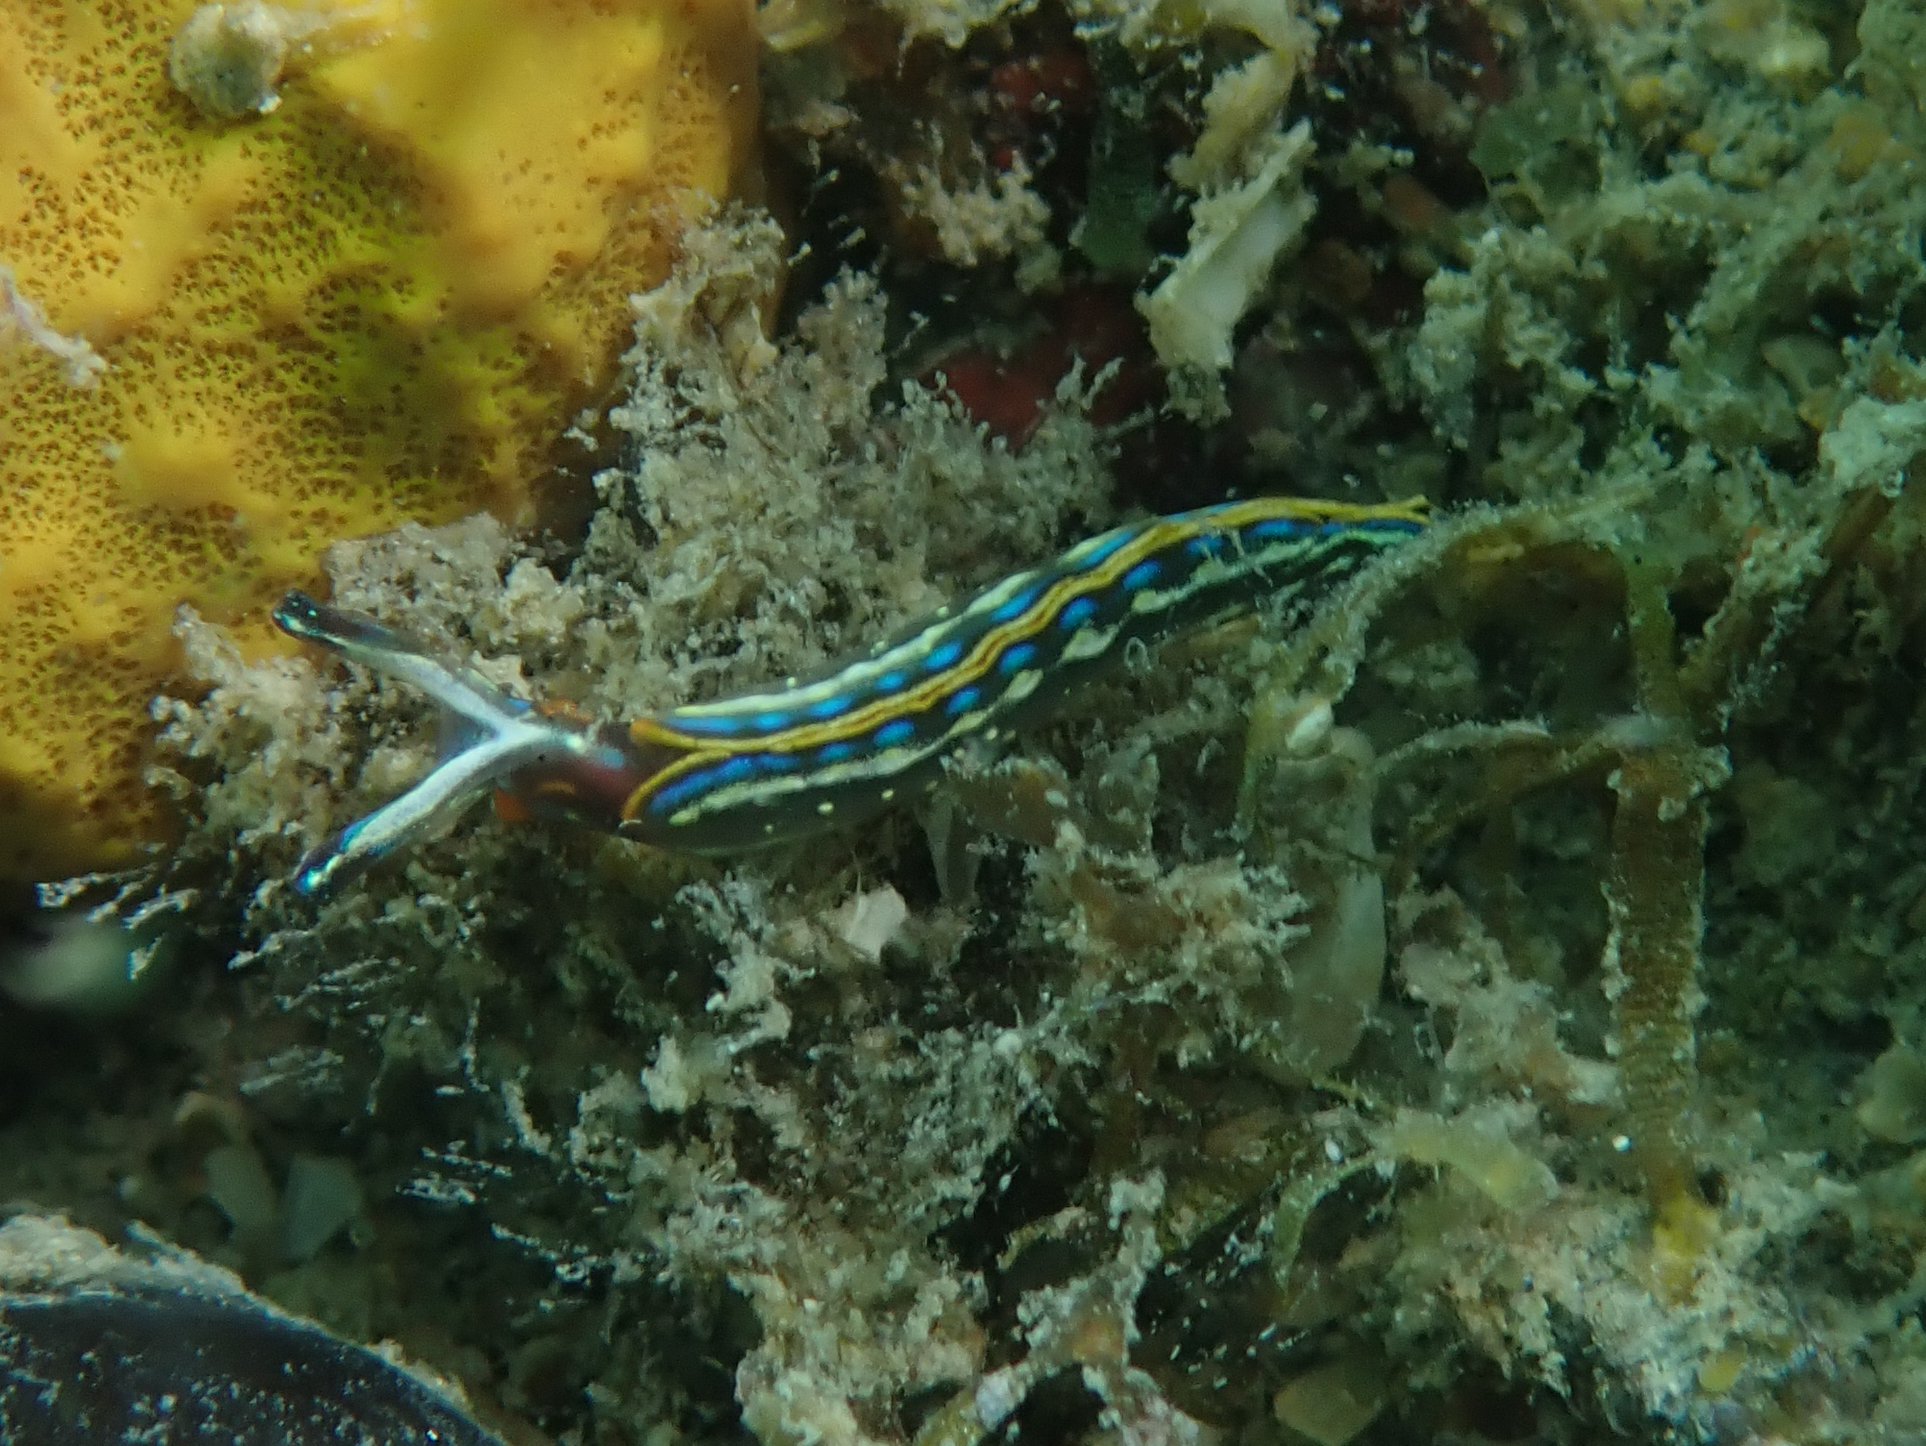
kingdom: Animalia
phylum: Mollusca
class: Gastropoda
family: Plakobranchidae
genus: Thuridilla
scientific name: Thuridilla hopei
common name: Splendid elysia
